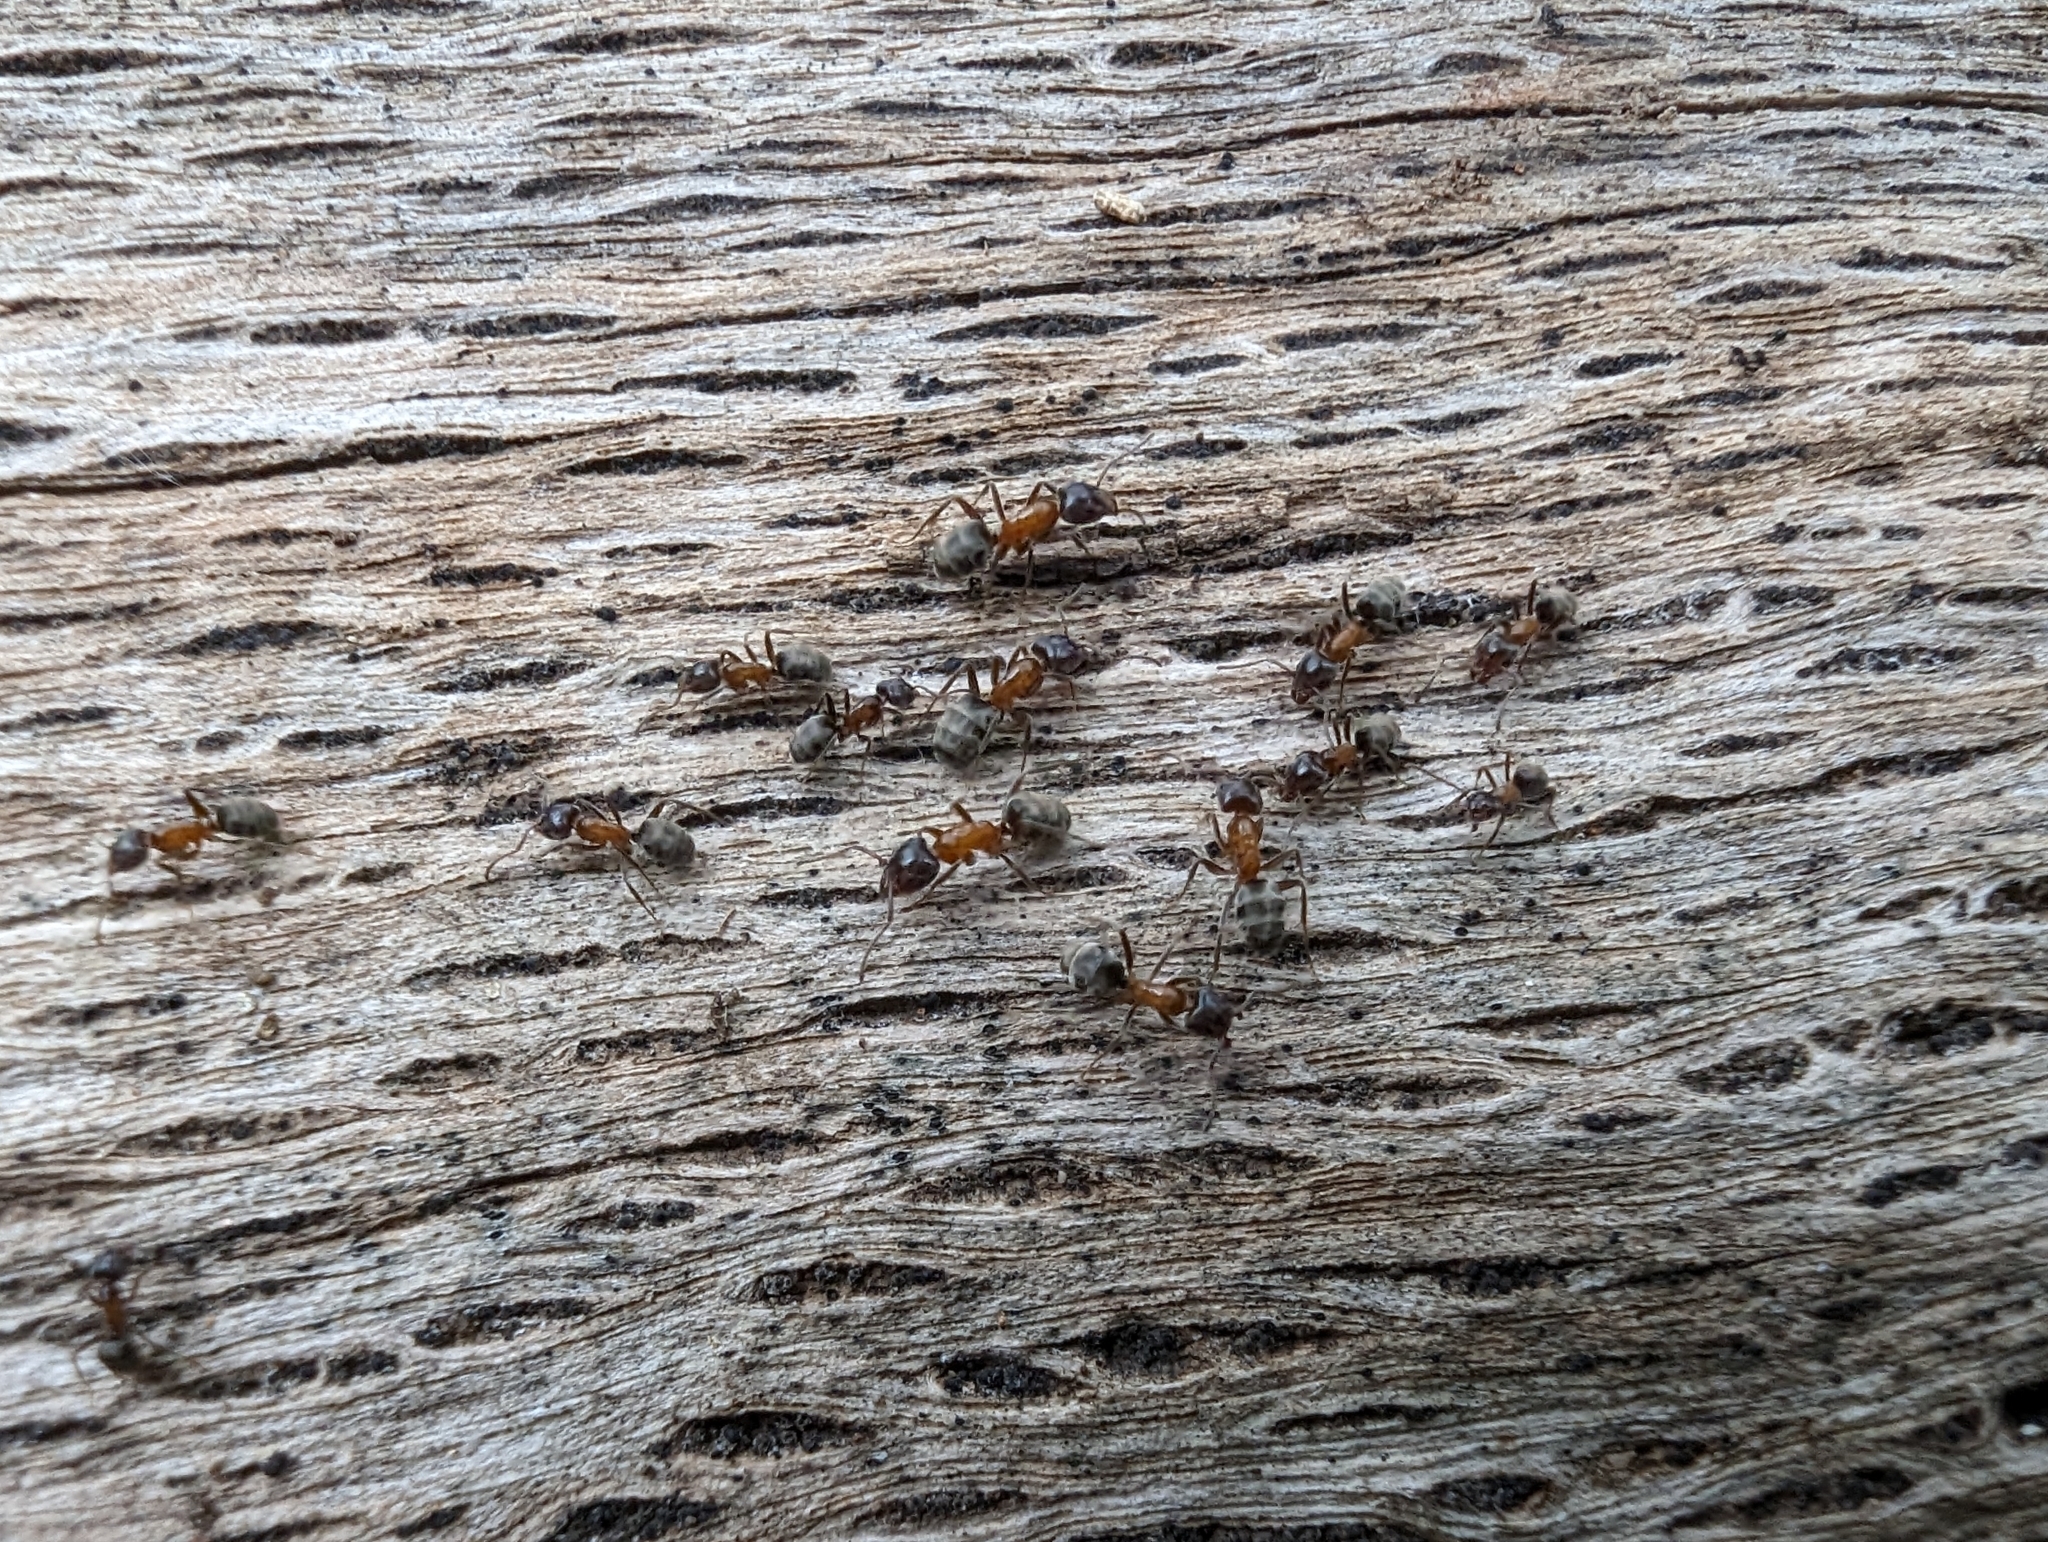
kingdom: Animalia
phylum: Arthropoda
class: Insecta
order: Hymenoptera
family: Formicidae
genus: Liometopum
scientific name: Liometopum occidentale
